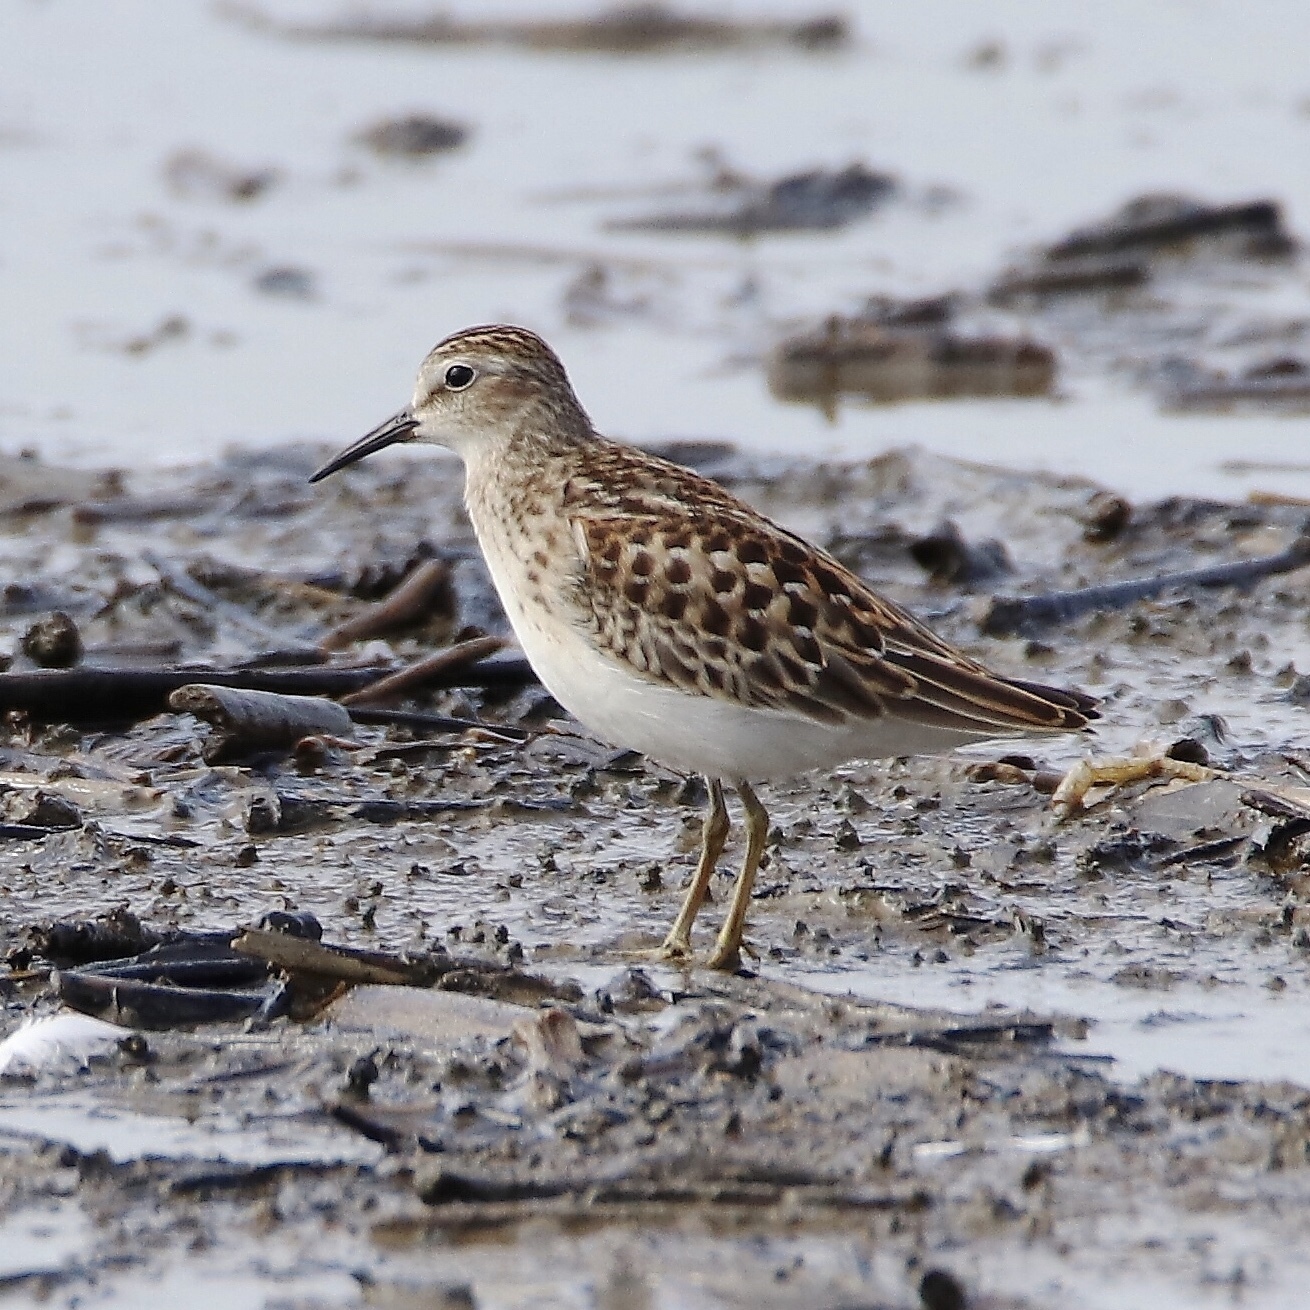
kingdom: Animalia
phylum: Chordata
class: Aves
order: Charadriiformes
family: Scolopacidae
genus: Calidris
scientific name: Calidris minutilla
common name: Least sandpiper
